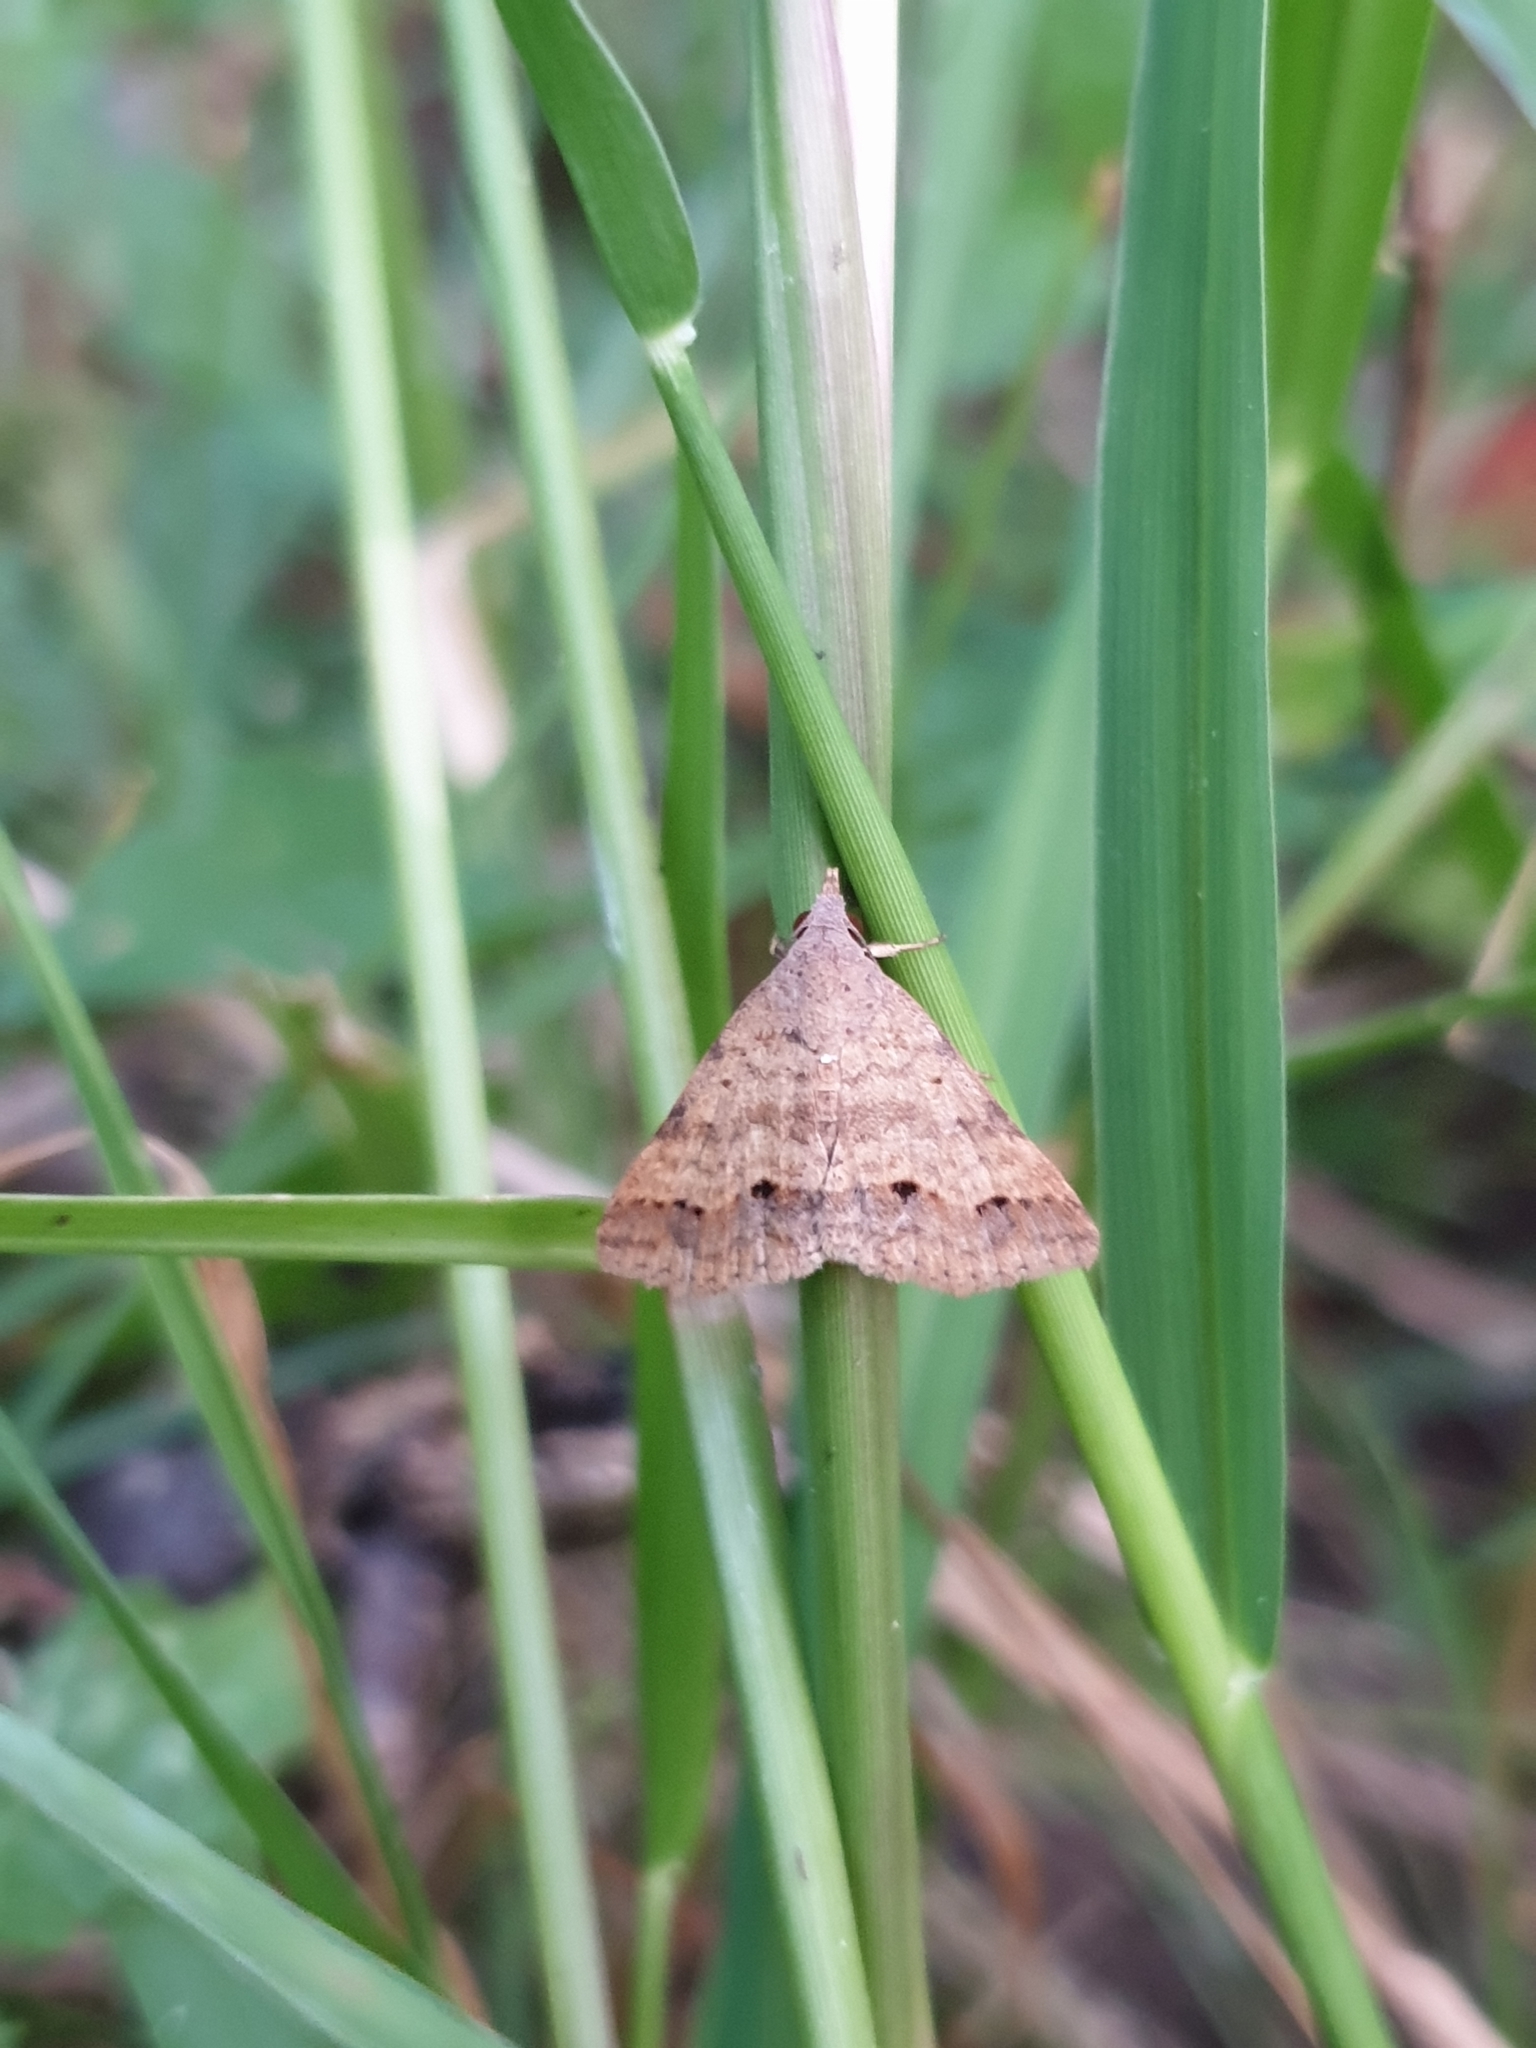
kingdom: Animalia
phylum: Arthropoda
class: Insecta
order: Lepidoptera
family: Erebidae
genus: Gesonia
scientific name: Gesonia obeditalis
